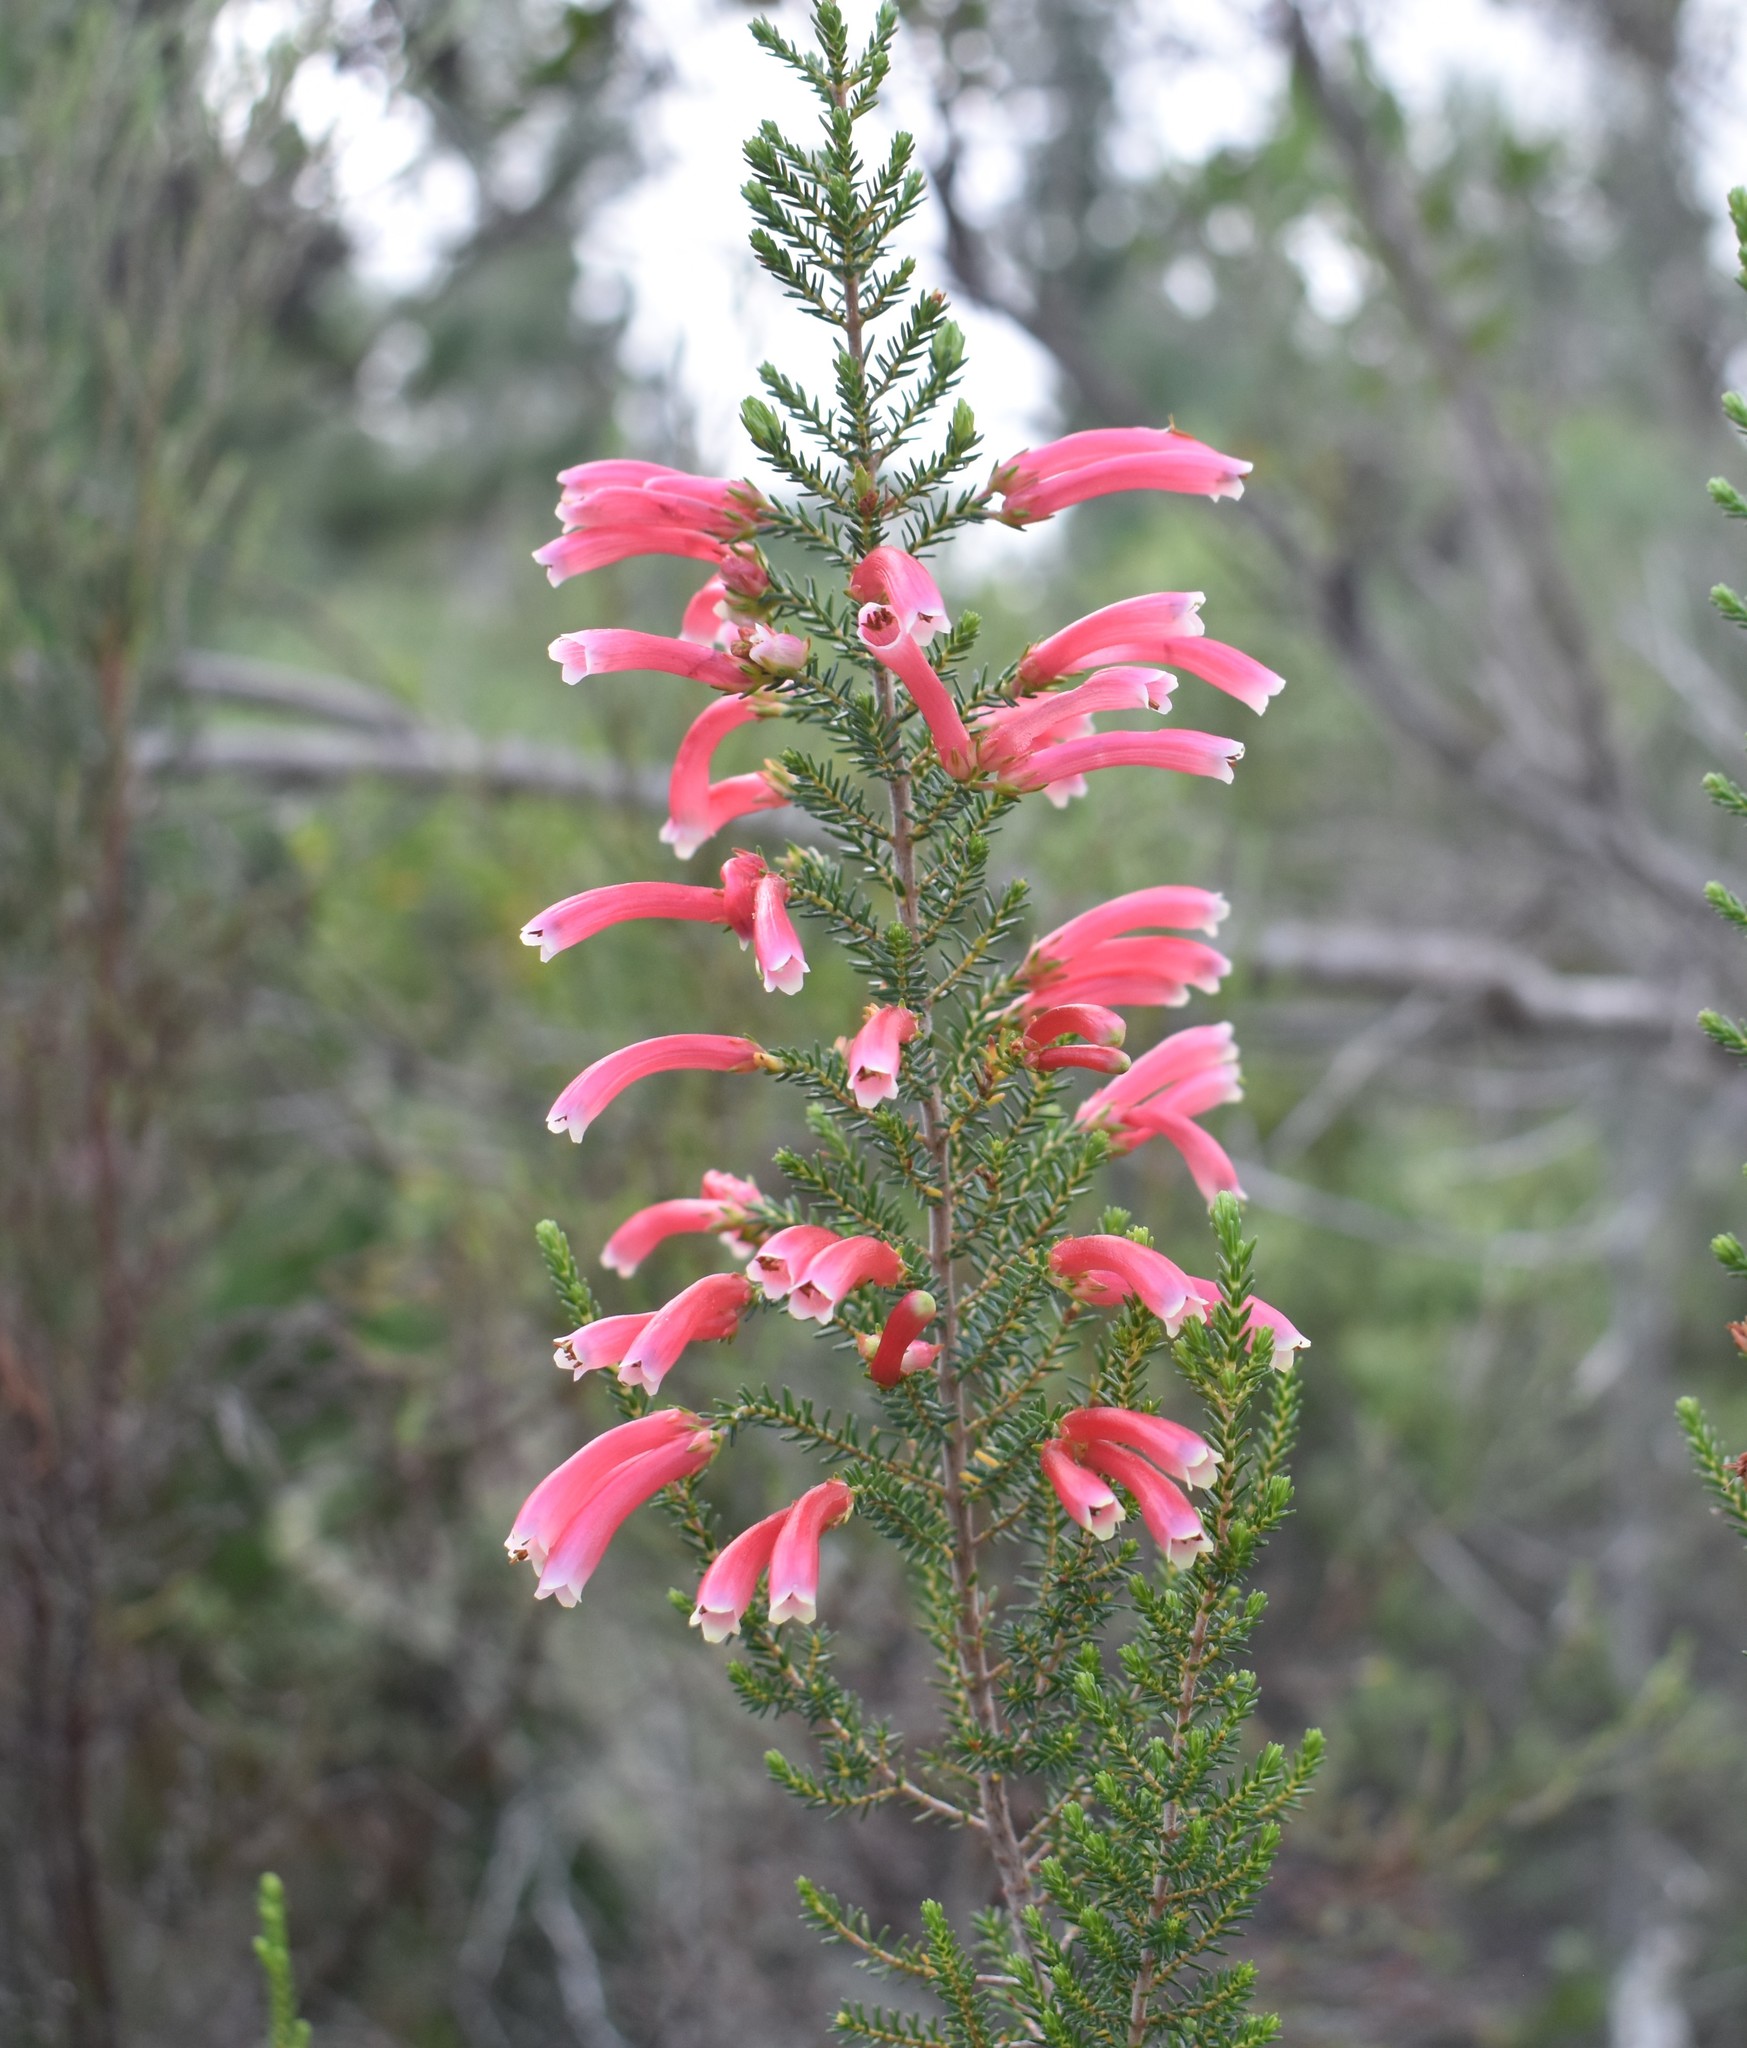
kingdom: Plantae
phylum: Tracheophyta
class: Magnoliopsida
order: Ericales
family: Ericaceae
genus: Erica
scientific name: Erica discolor
